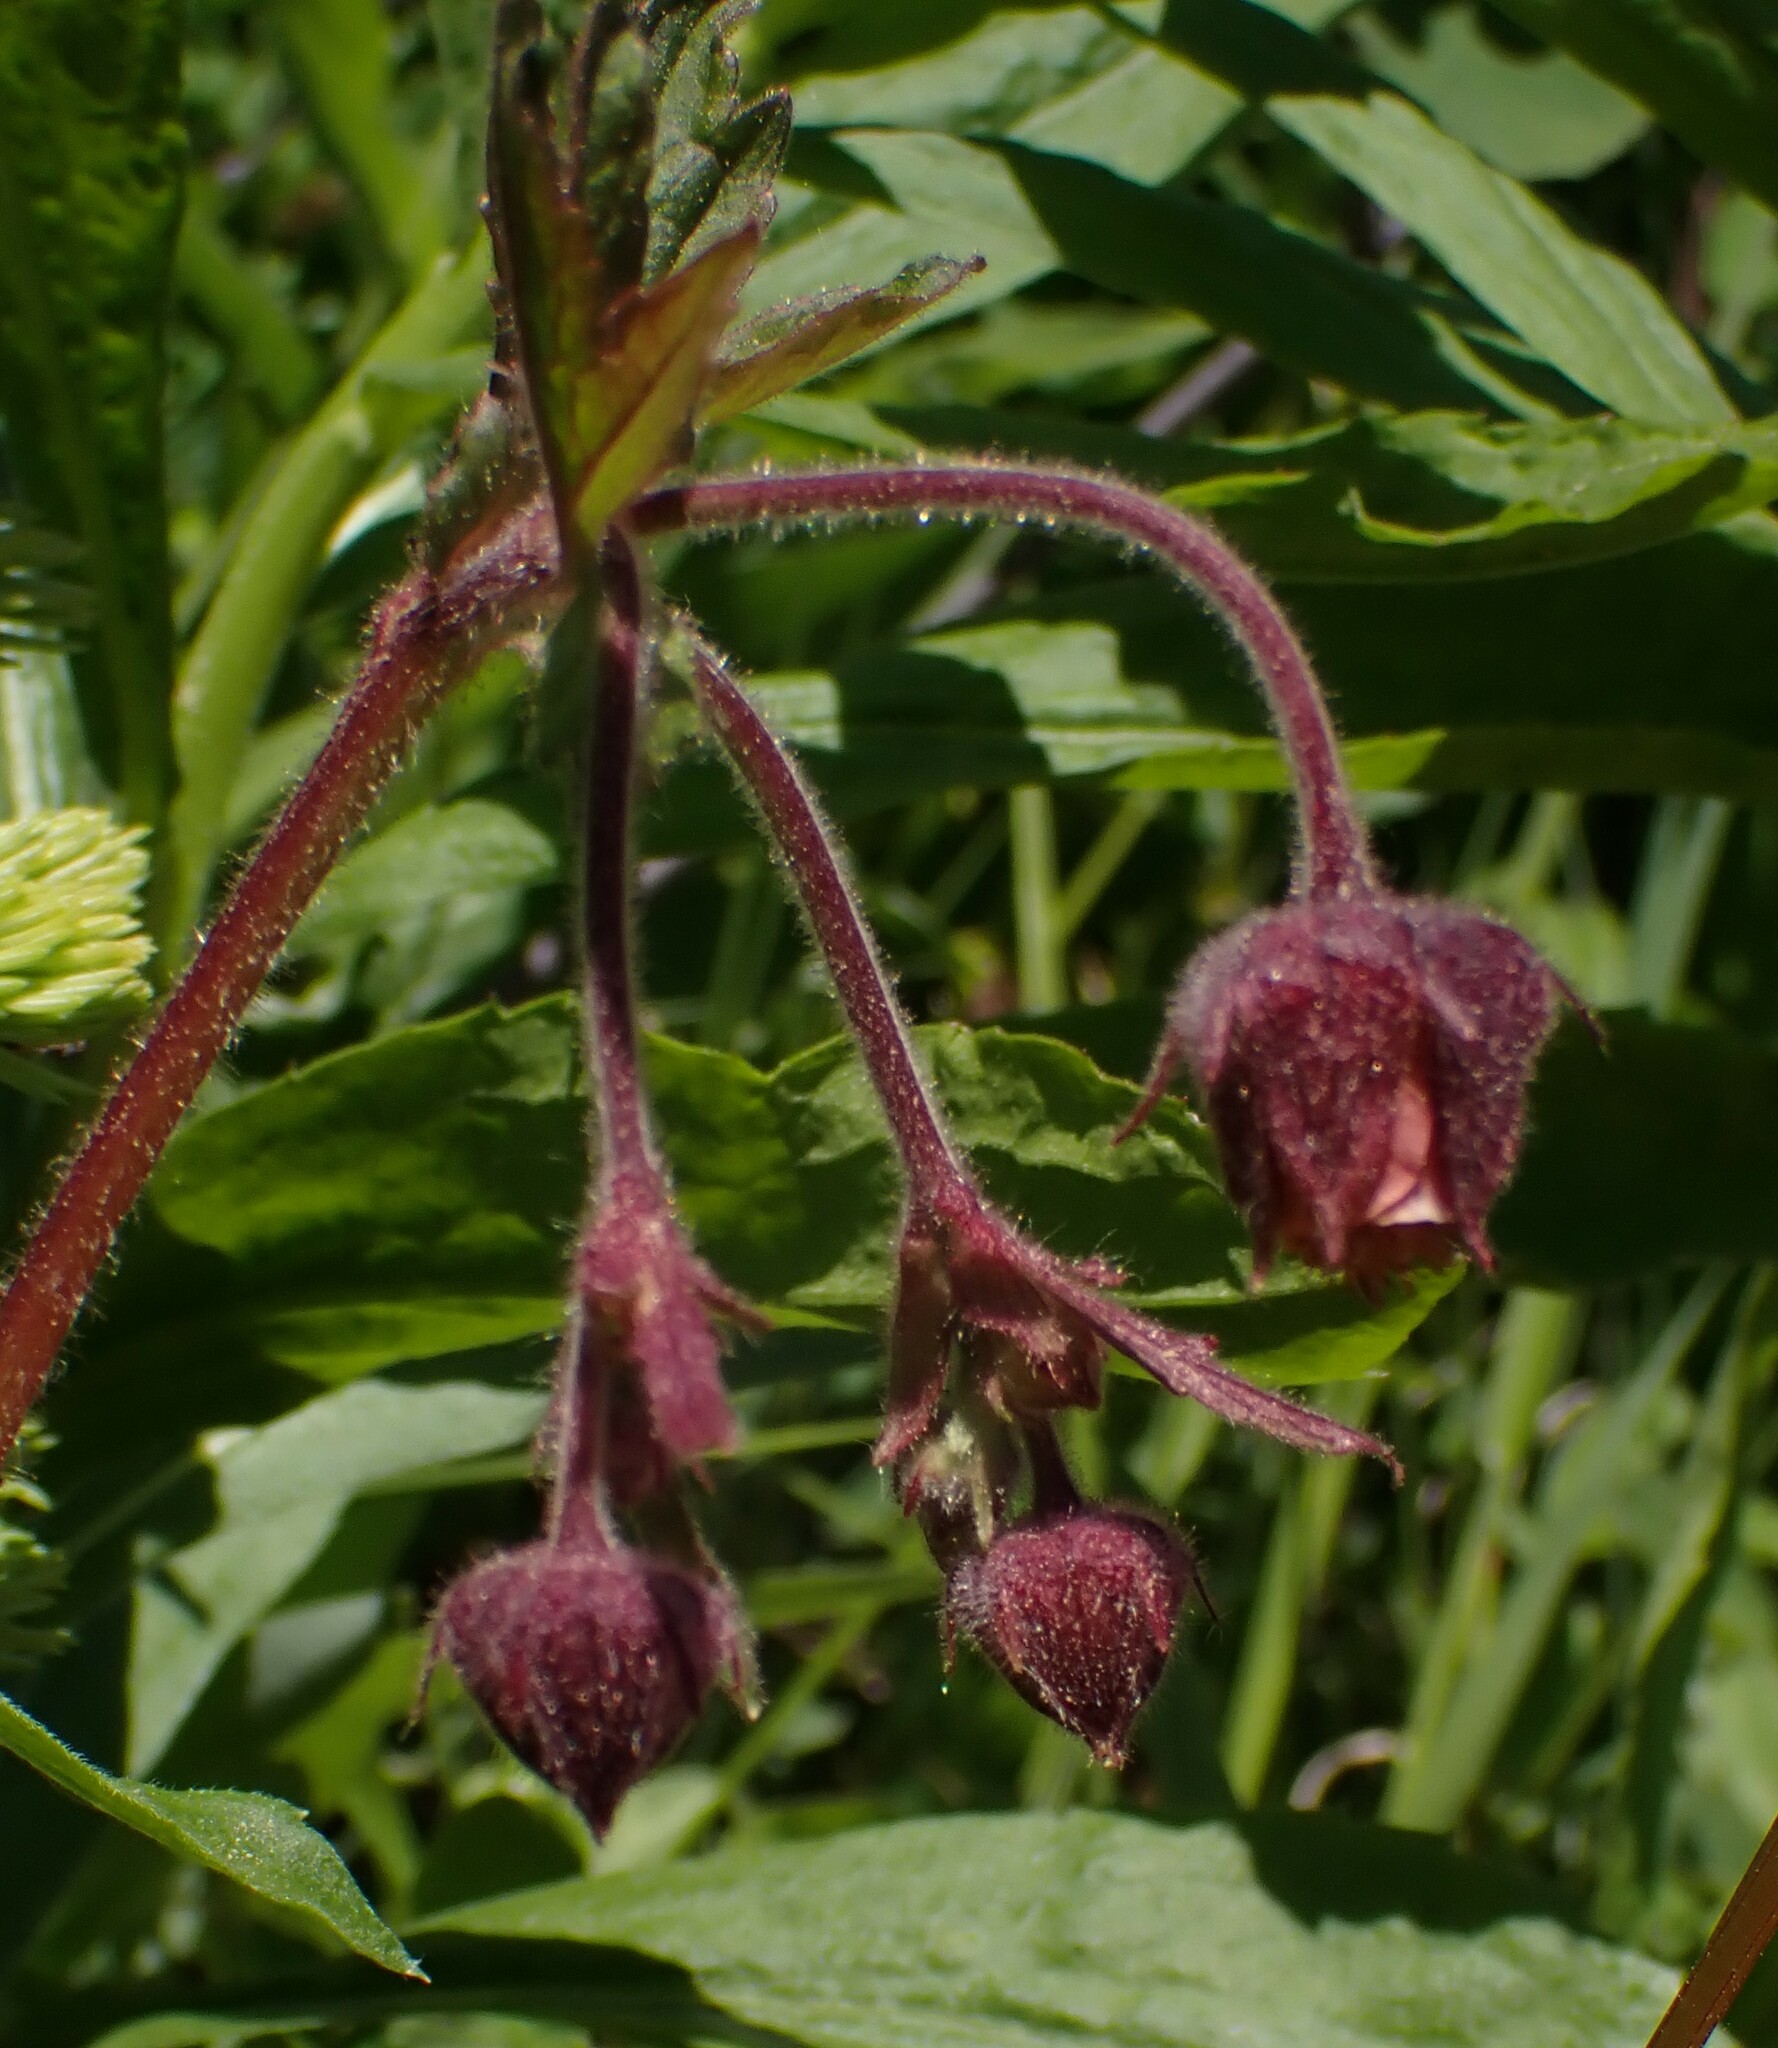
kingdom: Plantae
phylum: Tracheophyta
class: Magnoliopsida
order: Rosales
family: Rosaceae
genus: Geum
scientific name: Geum triflorum
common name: Old man's whiskers
